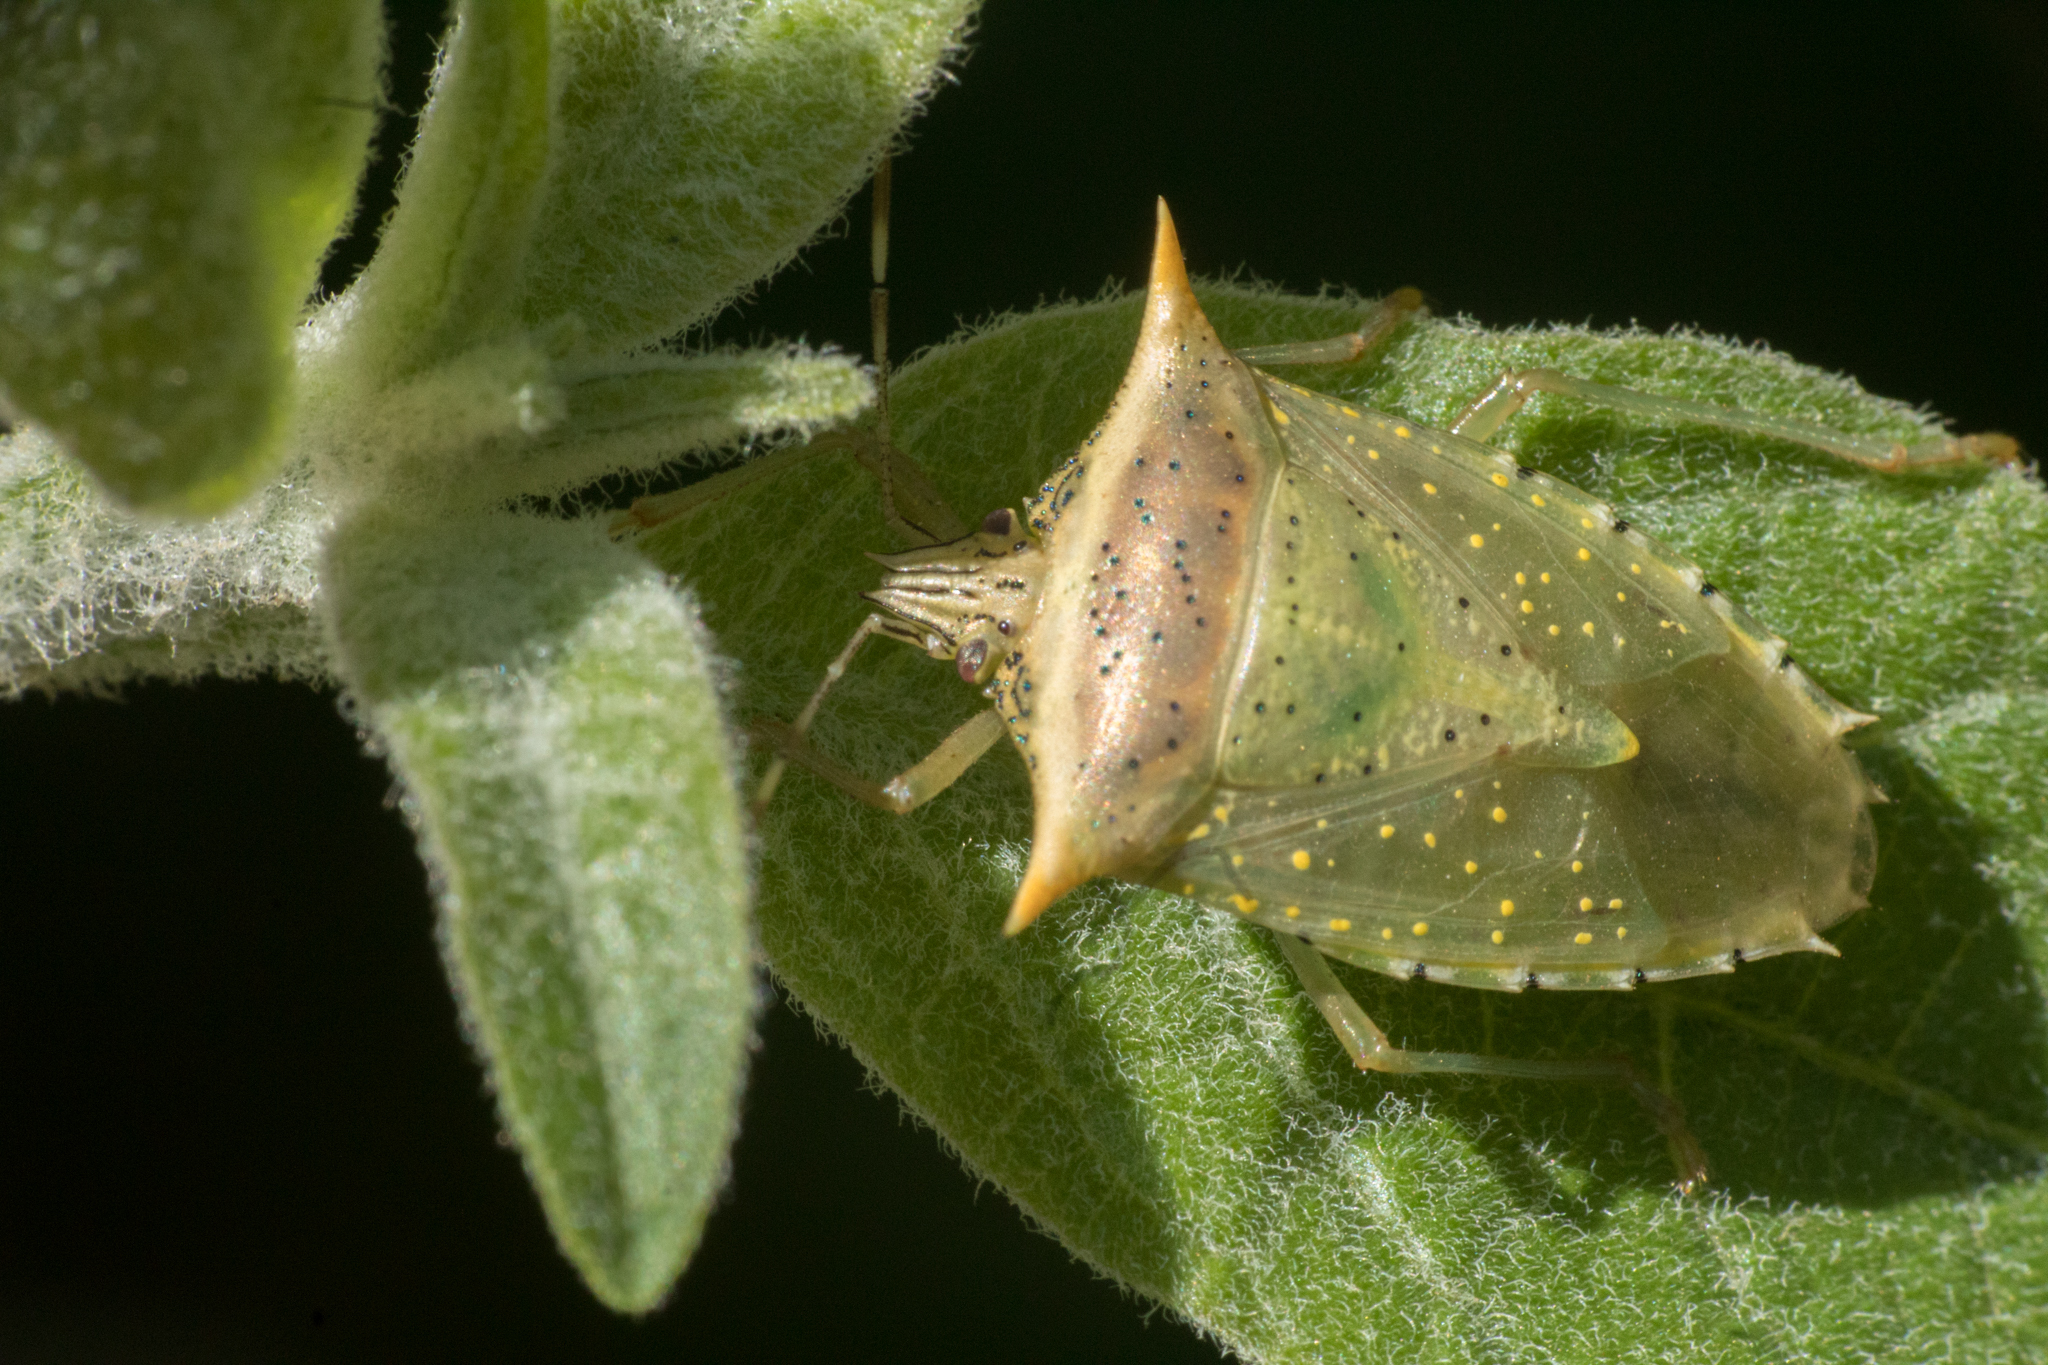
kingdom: Animalia
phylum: Arthropoda
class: Insecta
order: Hemiptera
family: Pentatomidae
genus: Arvelius
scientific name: Arvelius albopunctatus
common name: Tomato stink bug
